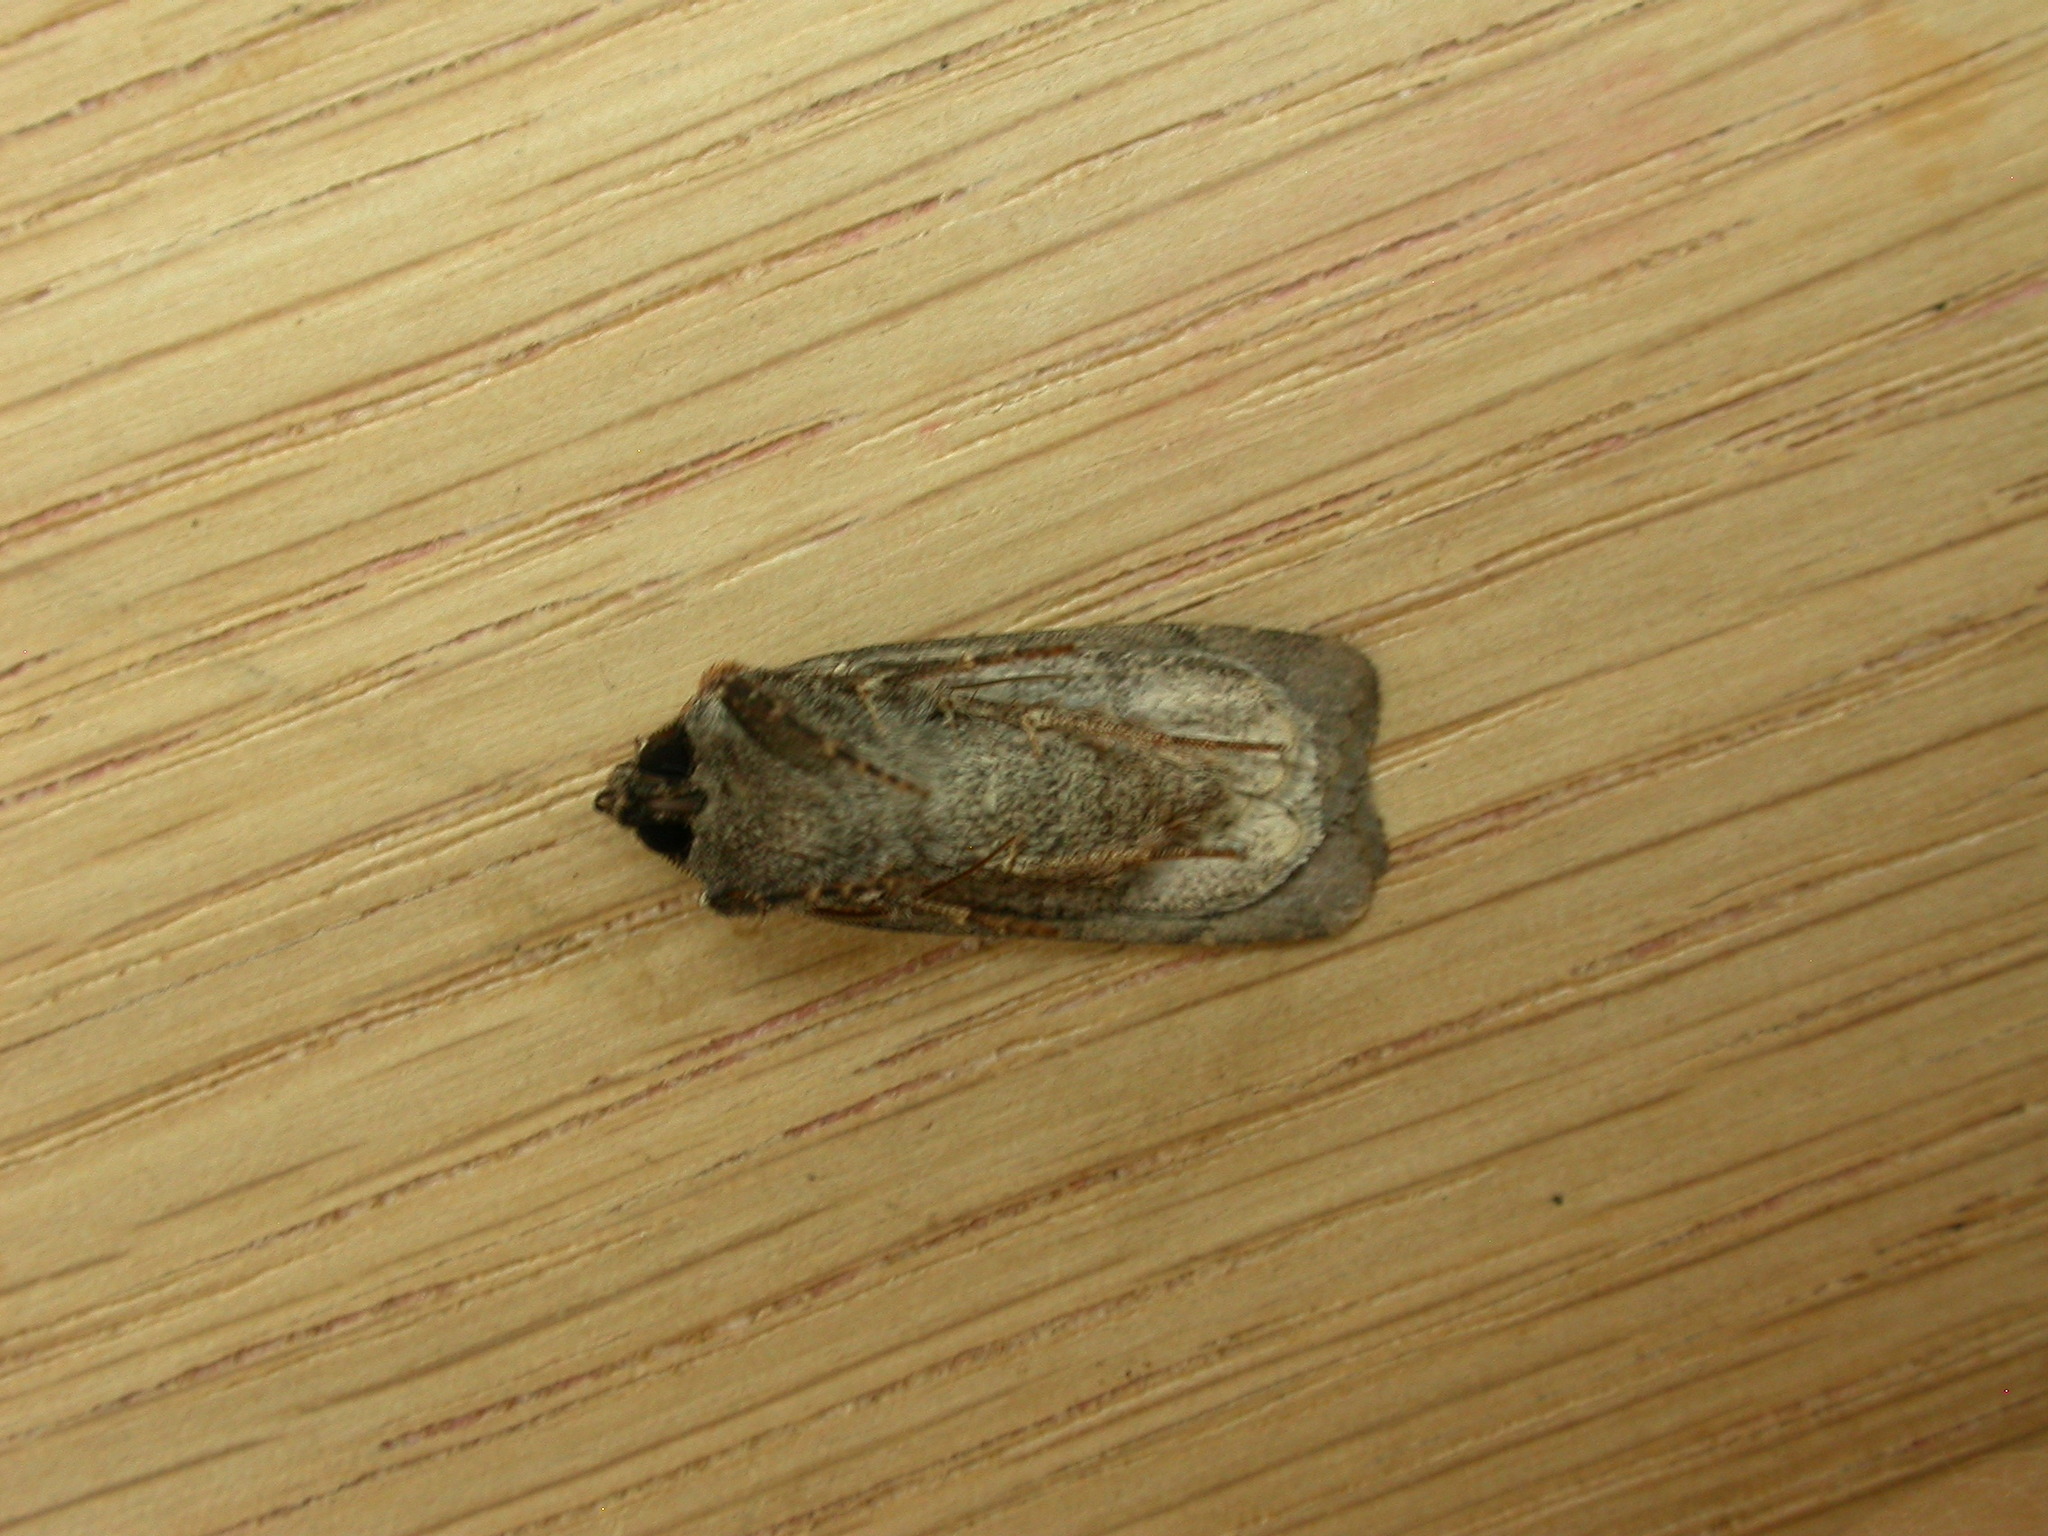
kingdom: Animalia
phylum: Arthropoda
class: Insecta
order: Lepidoptera
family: Noctuidae
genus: Euxoa
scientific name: Euxoa obelisca
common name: Square-spot dart
